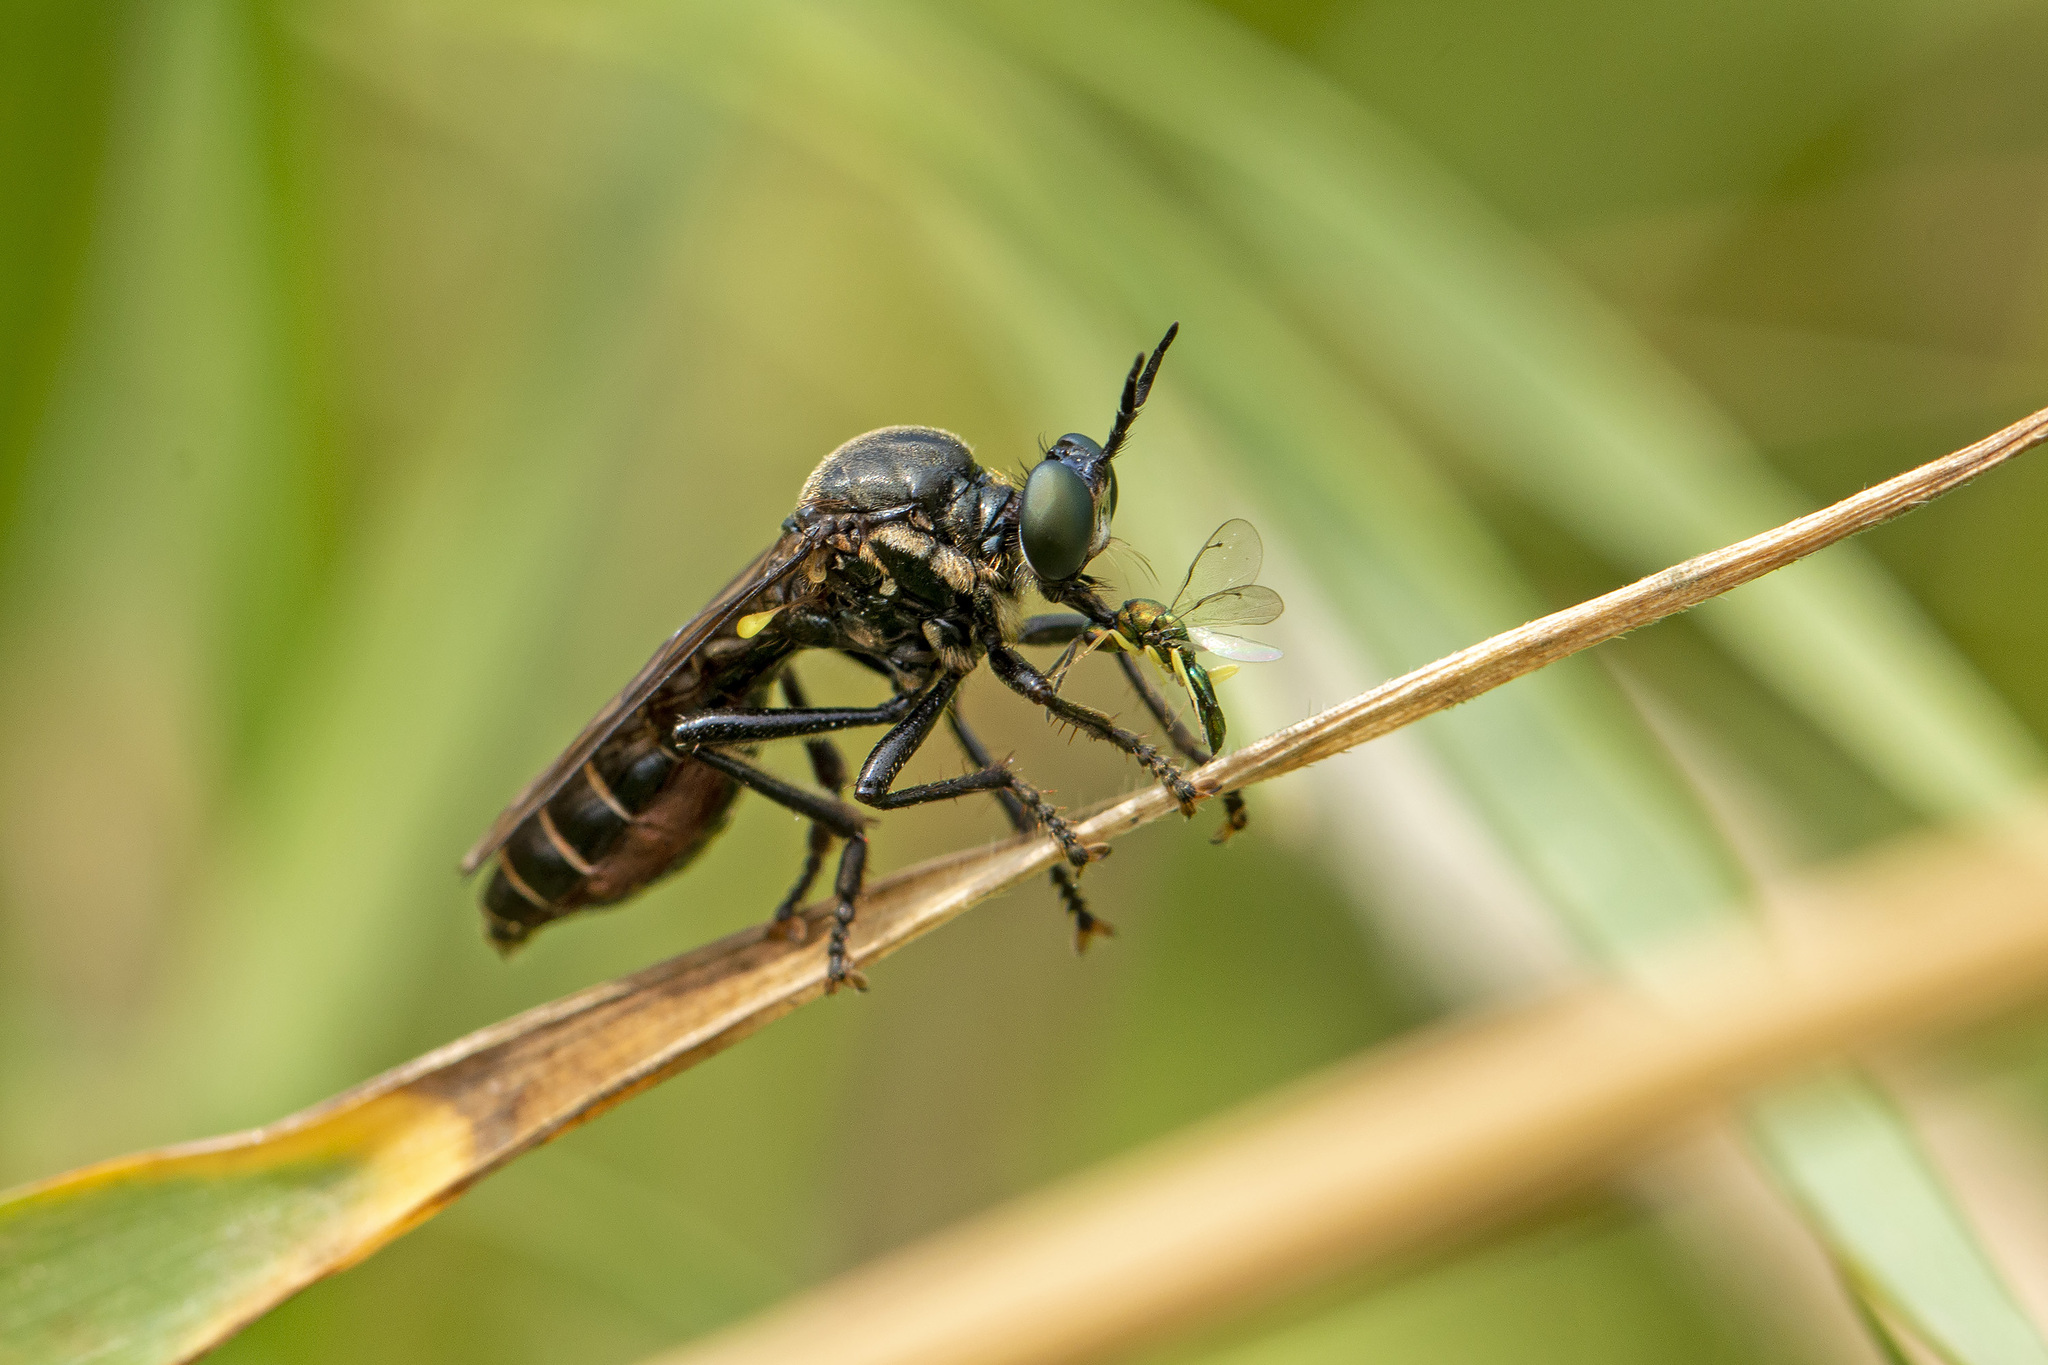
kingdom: Animalia
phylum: Arthropoda
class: Insecta
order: Diptera
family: Asilidae
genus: Dioctria
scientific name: Dioctria atricapilla
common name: Violet black-legged
